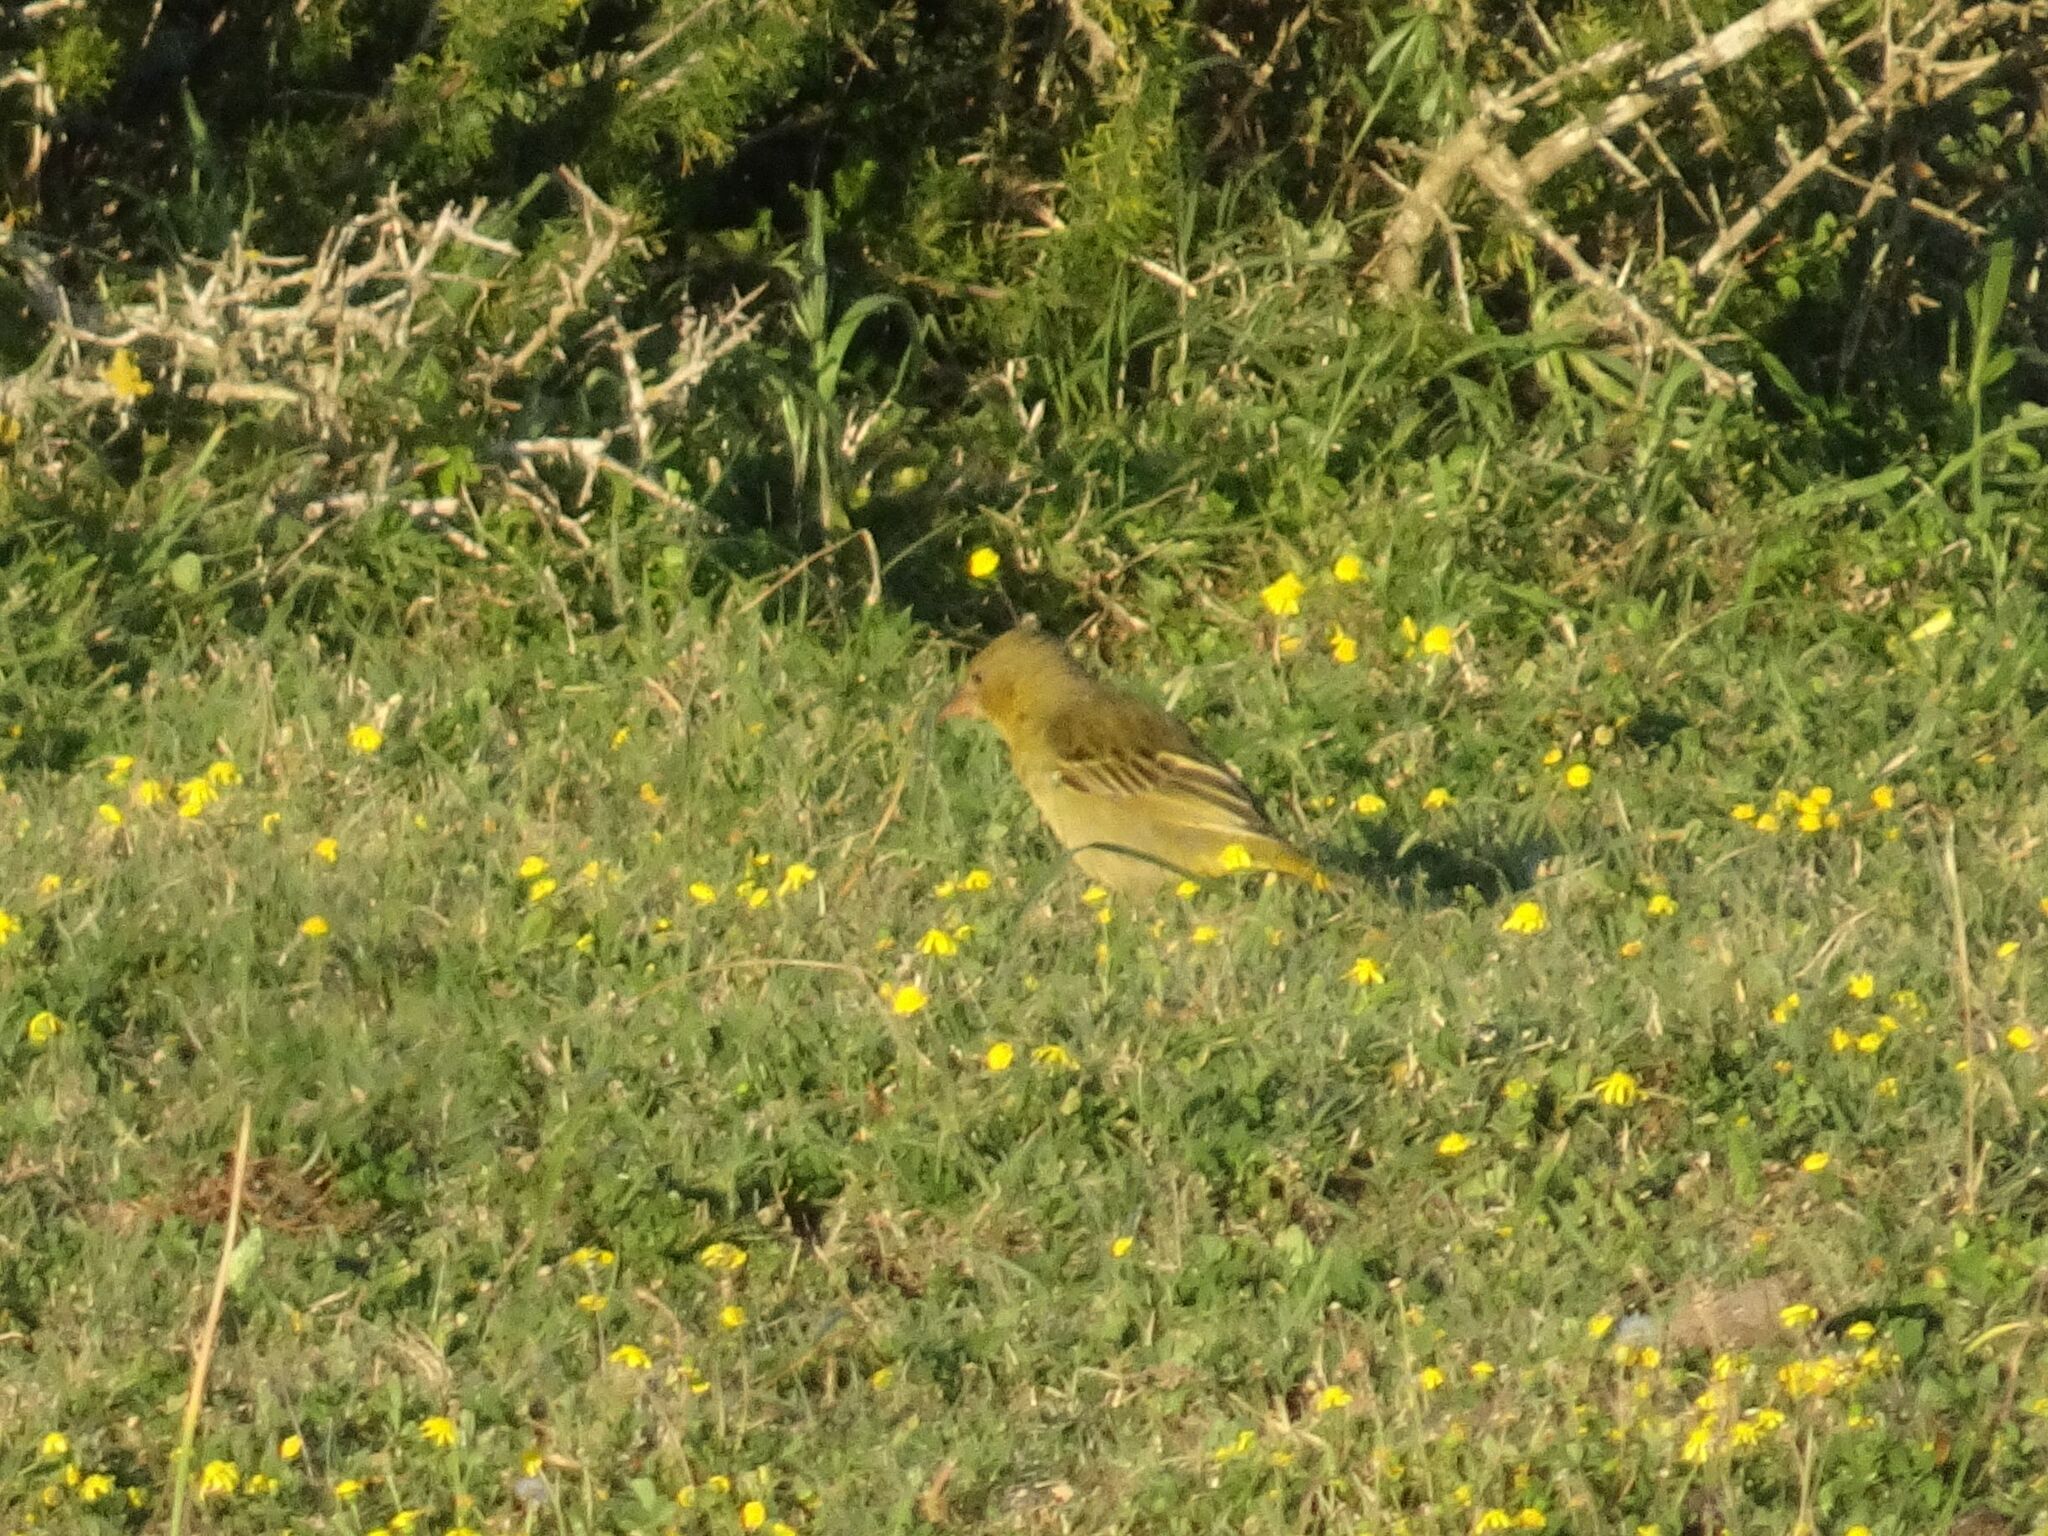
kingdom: Animalia
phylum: Chordata
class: Aves
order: Passeriformes
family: Ploceidae
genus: Ploceus
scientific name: Ploceus capensis
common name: Cape weaver
